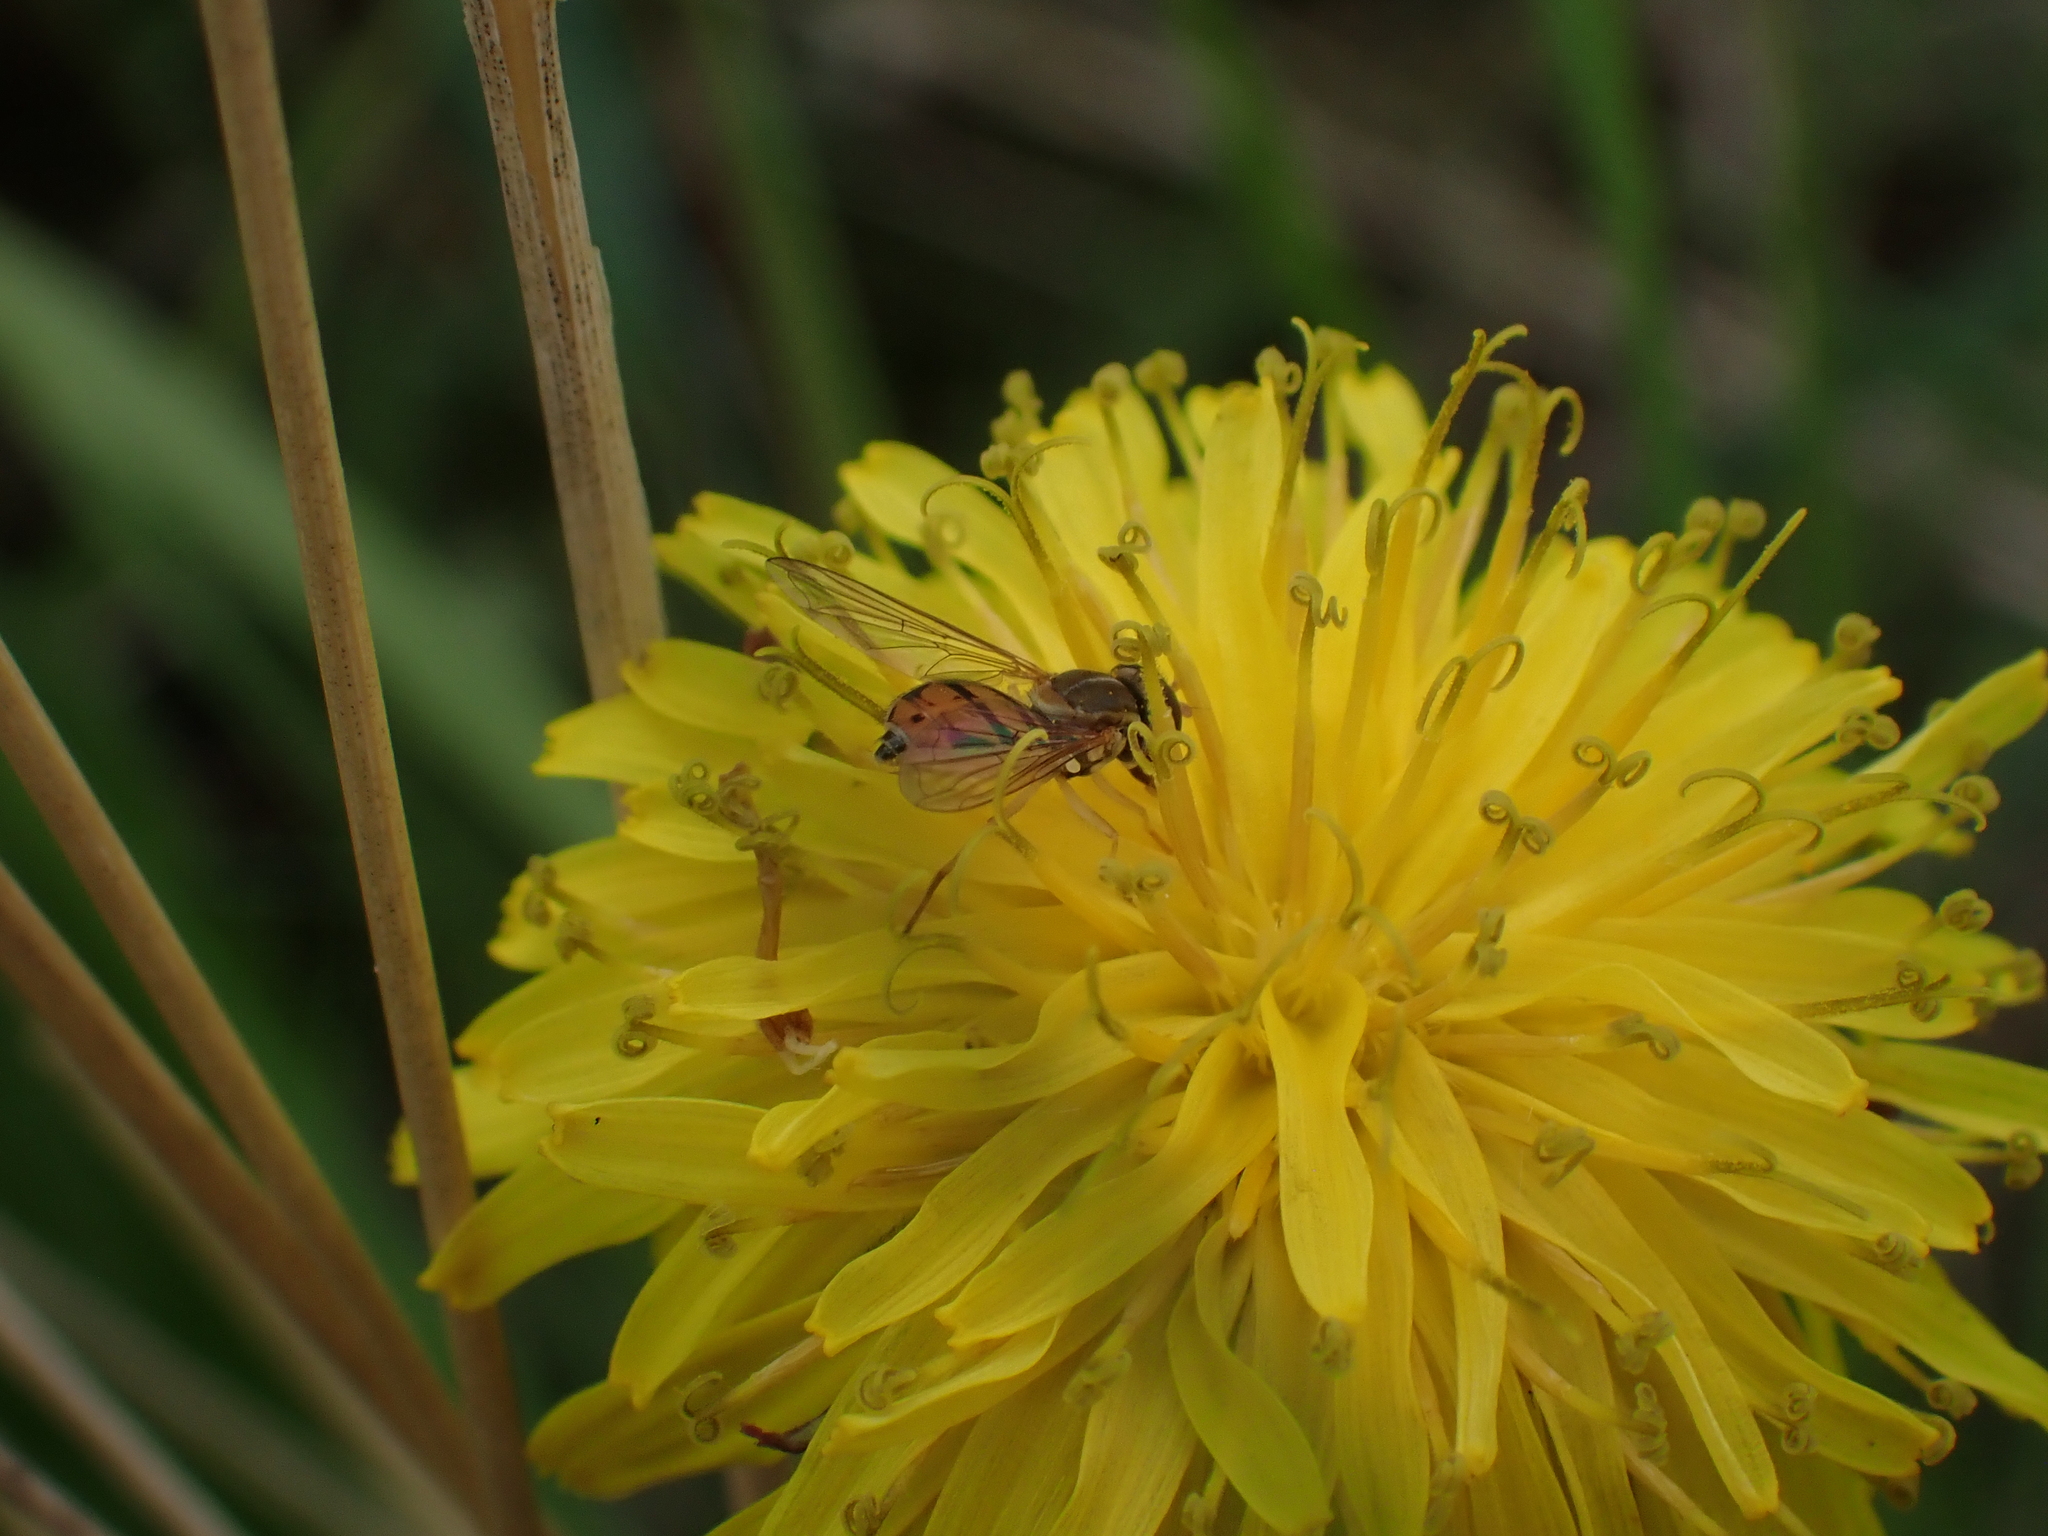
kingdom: Animalia
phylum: Arthropoda
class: Insecta
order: Diptera
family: Syrphidae
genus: Toxomerus
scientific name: Toxomerus marginatus
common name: Syrphid fly
